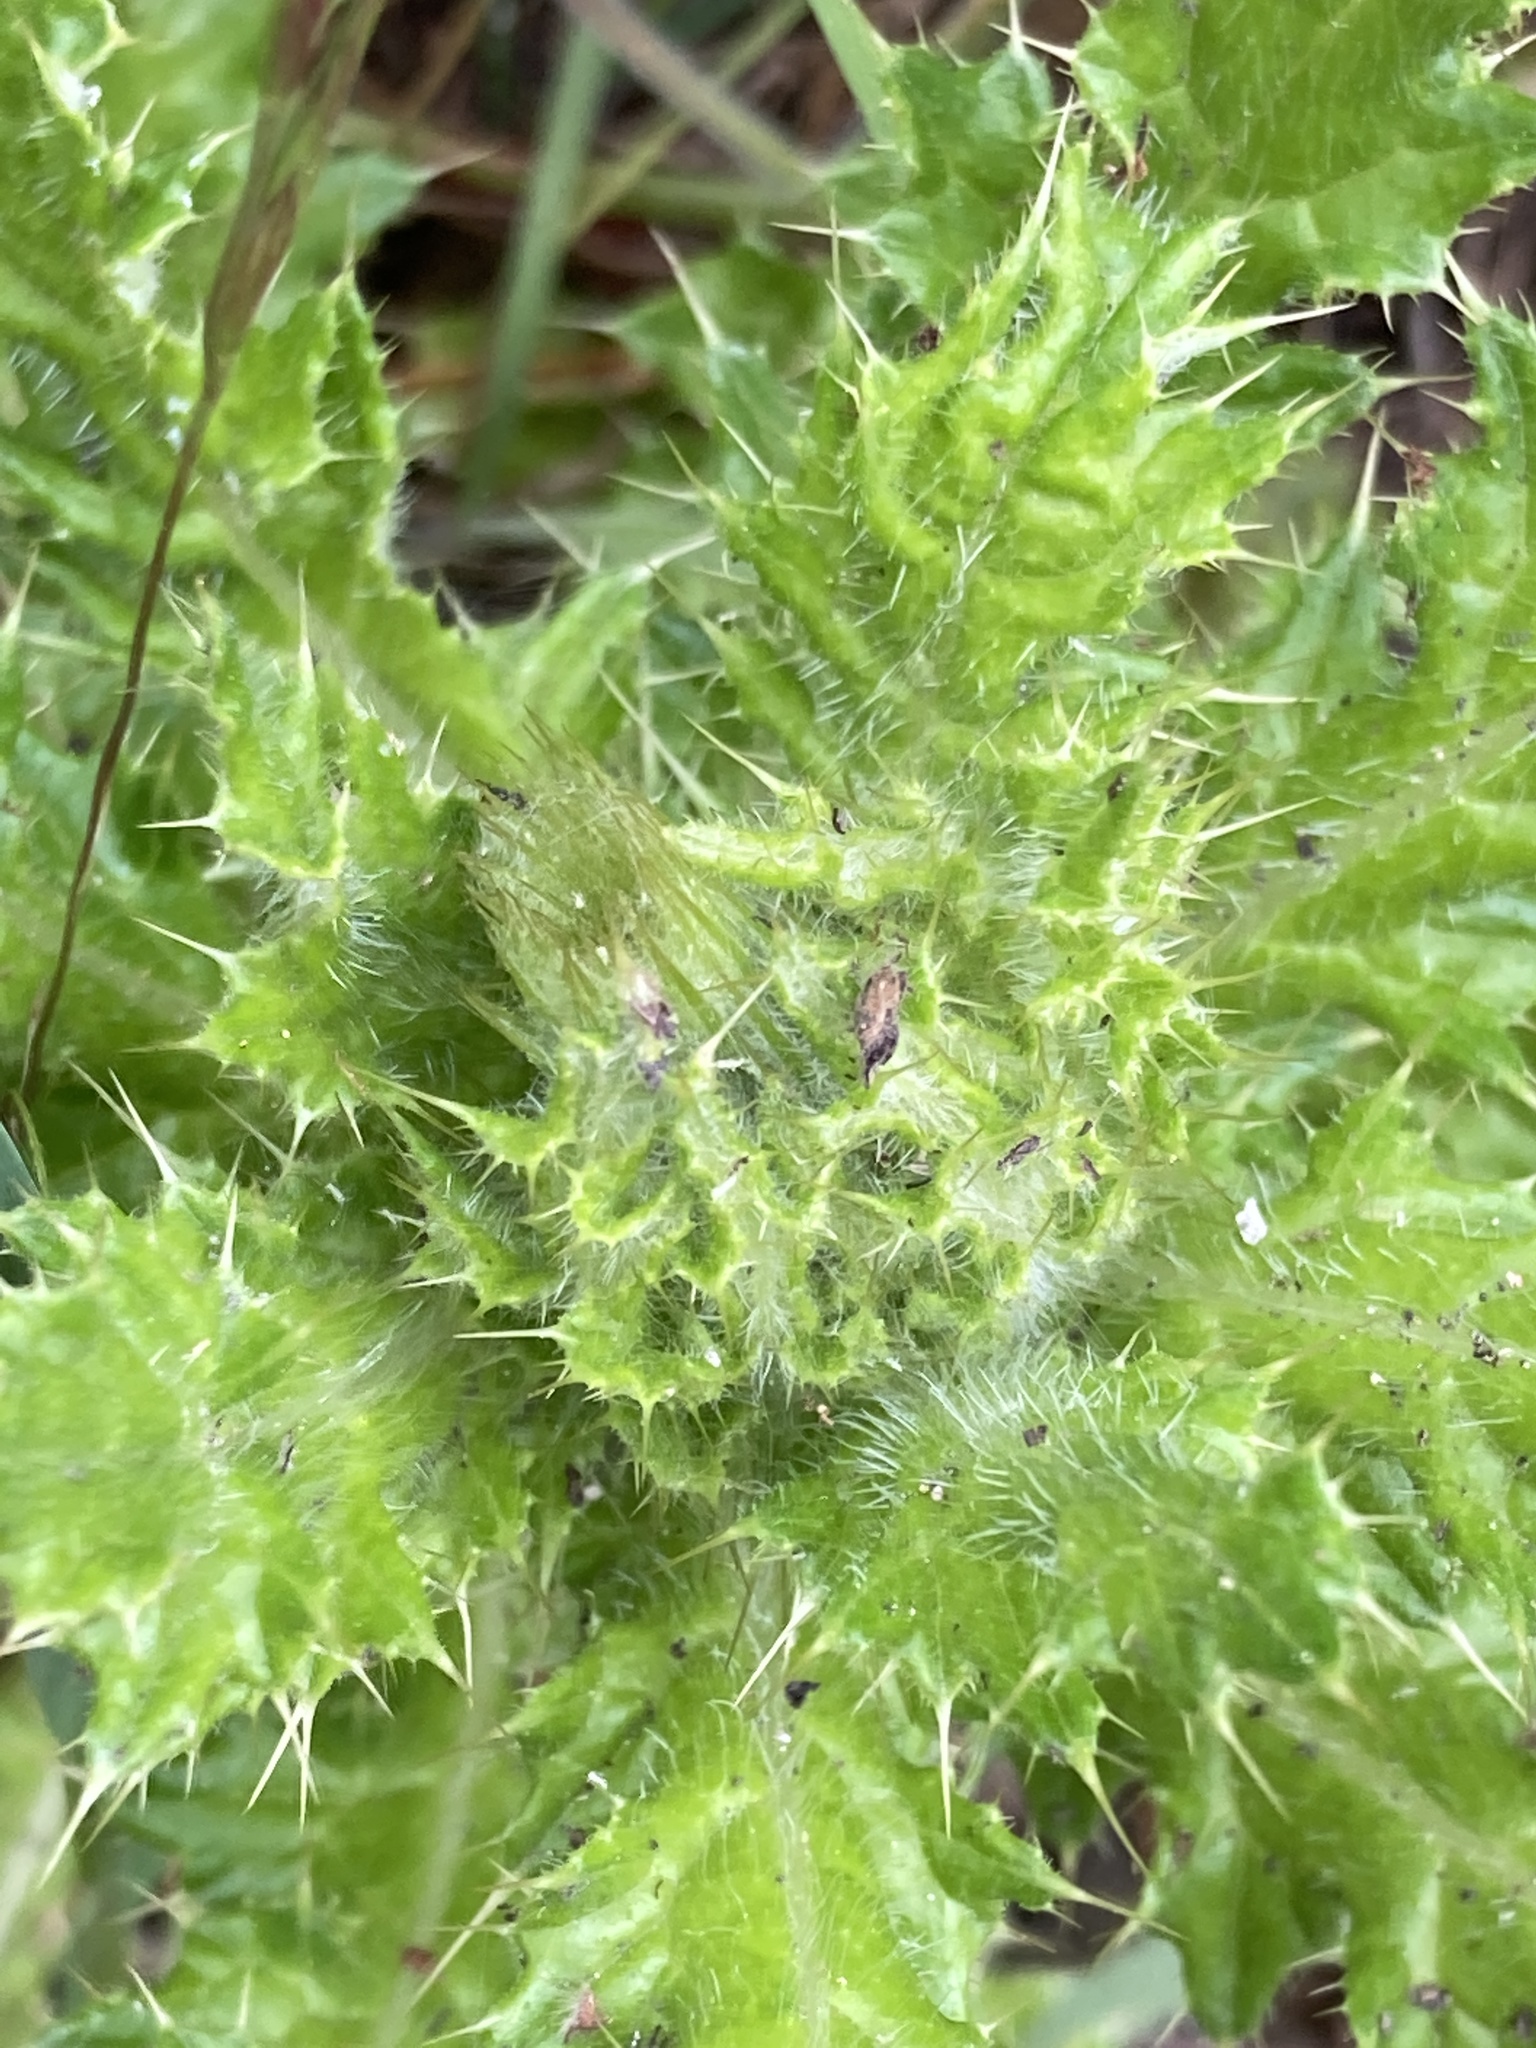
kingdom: Plantae
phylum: Tracheophyta
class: Magnoliopsida
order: Asterales
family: Asteraceae
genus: Cirsium
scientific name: Cirsium brevistylum
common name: Indian thistle
